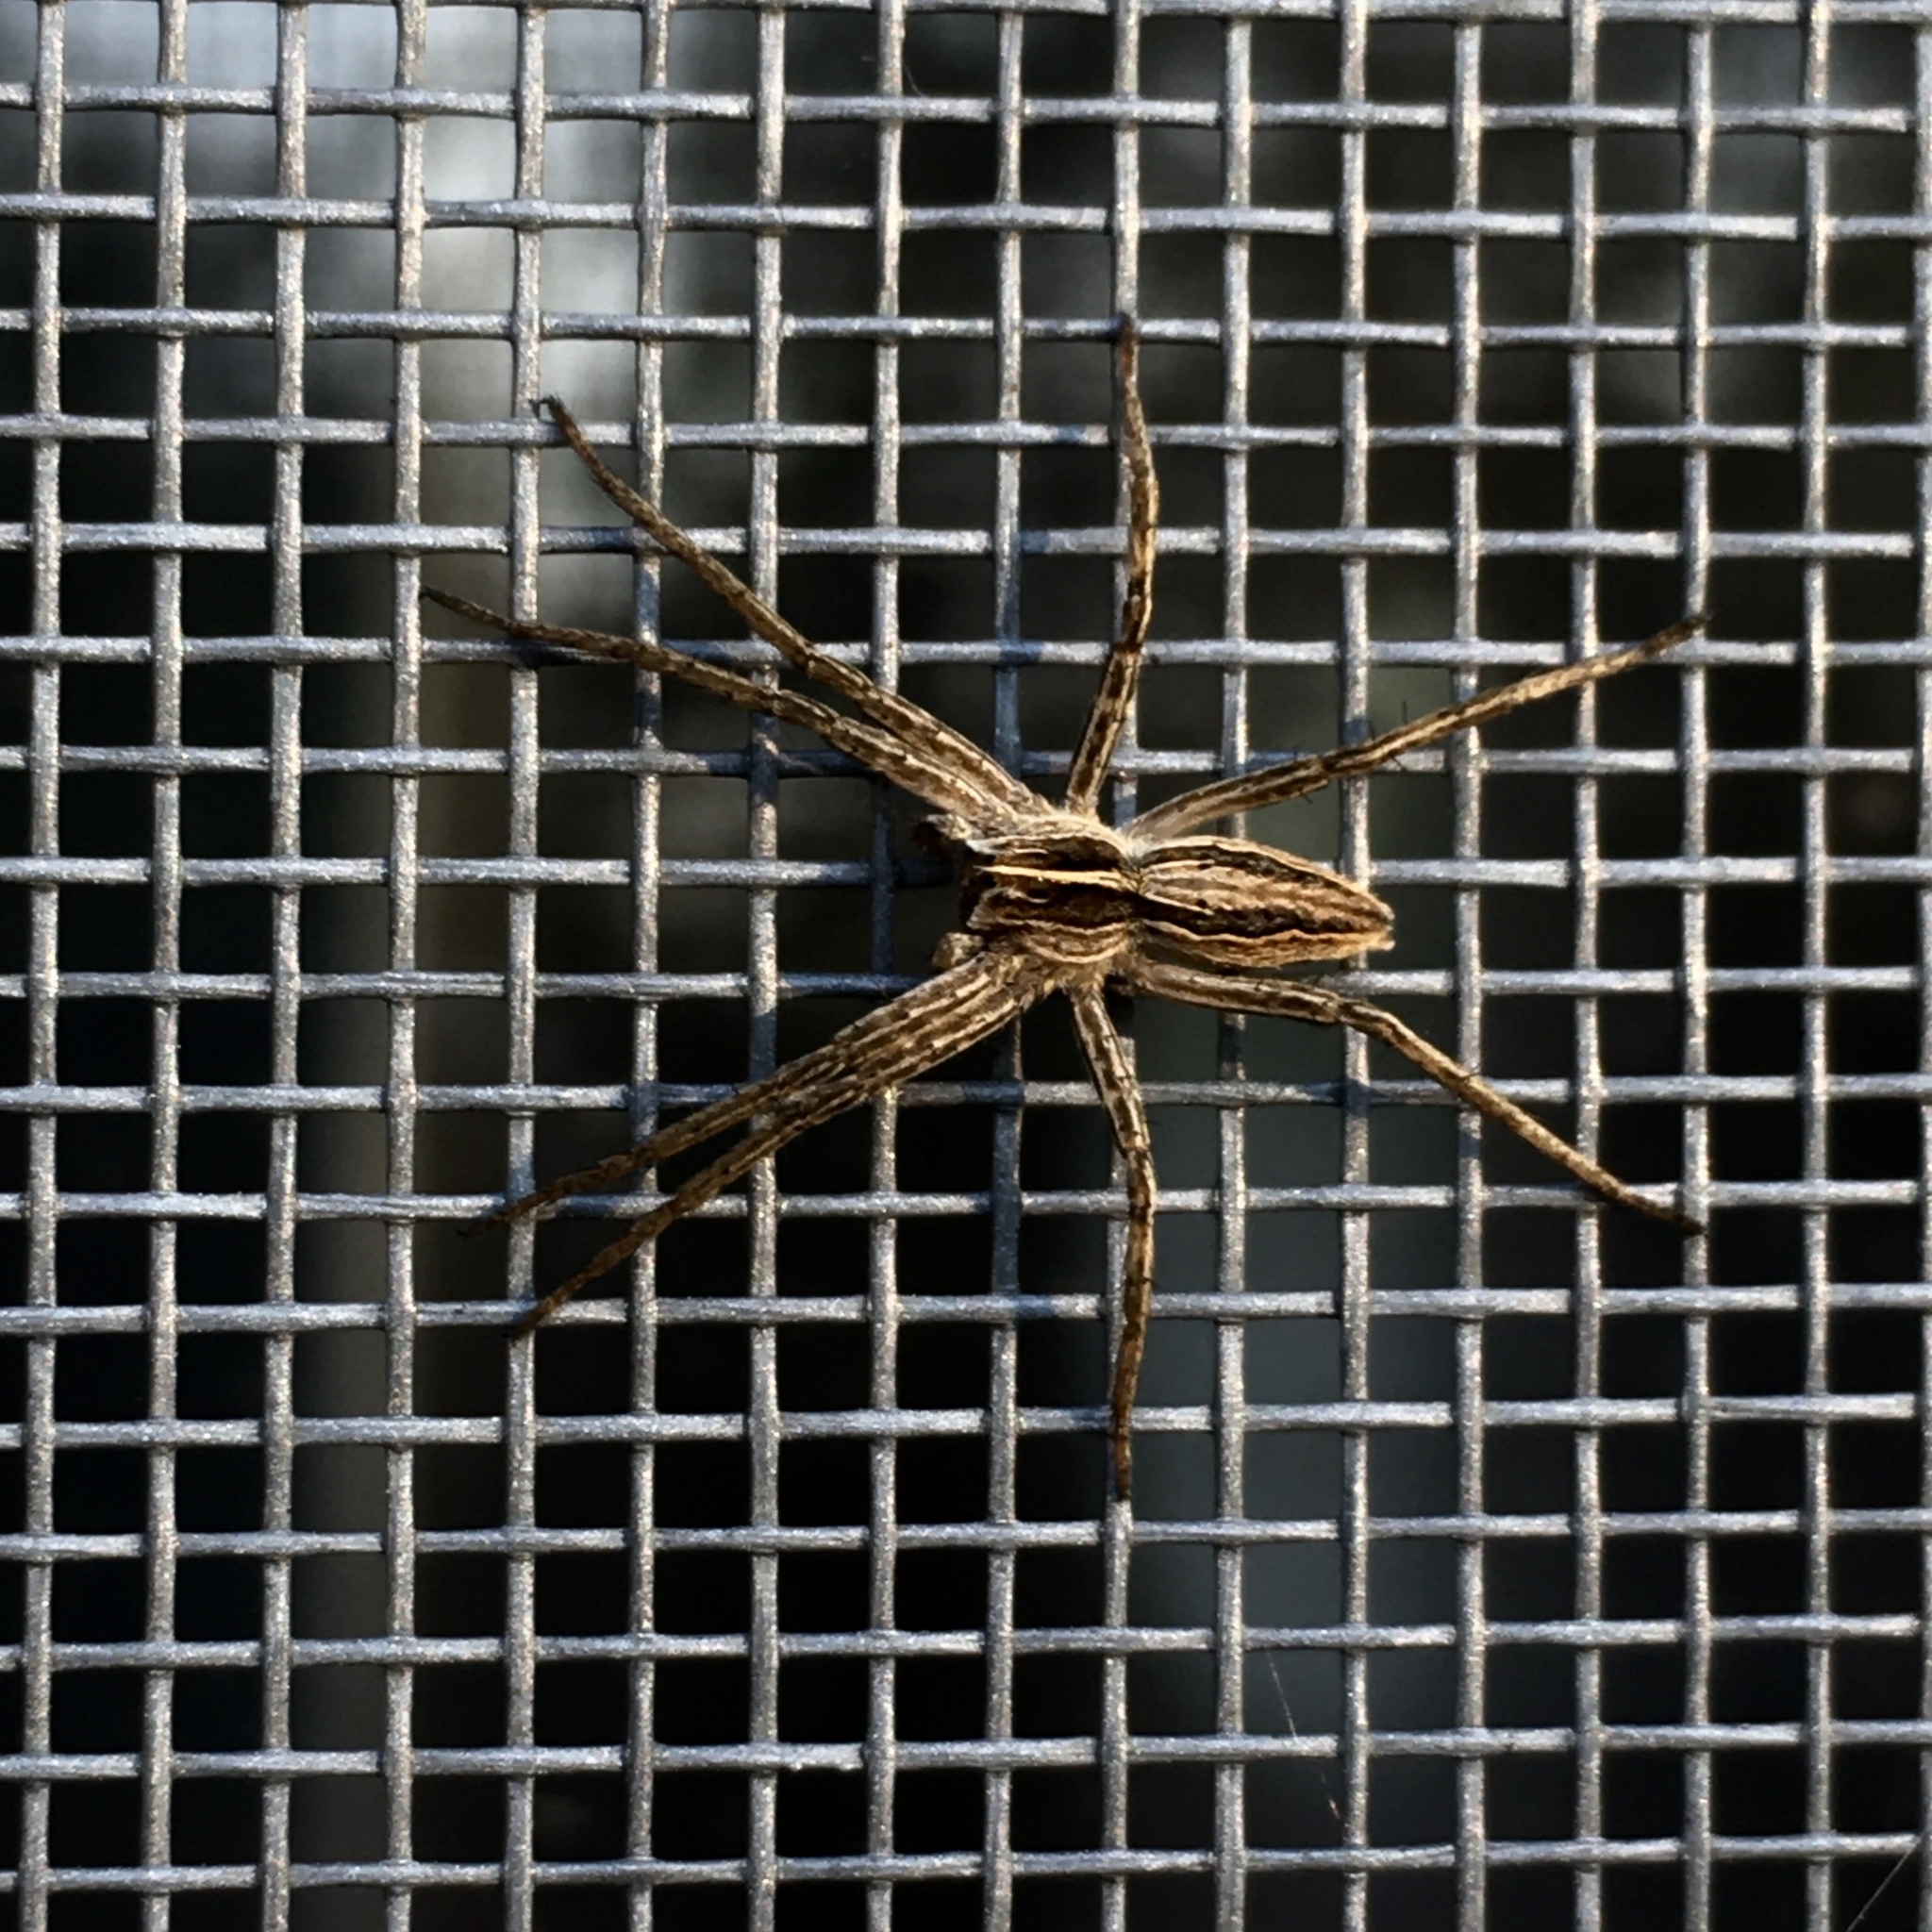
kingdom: Animalia
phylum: Arthropoda
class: Arachnida
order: Araneae
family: Pisauridae
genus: Pisaura
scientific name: Pisaura mirabilis
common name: Tent spider
